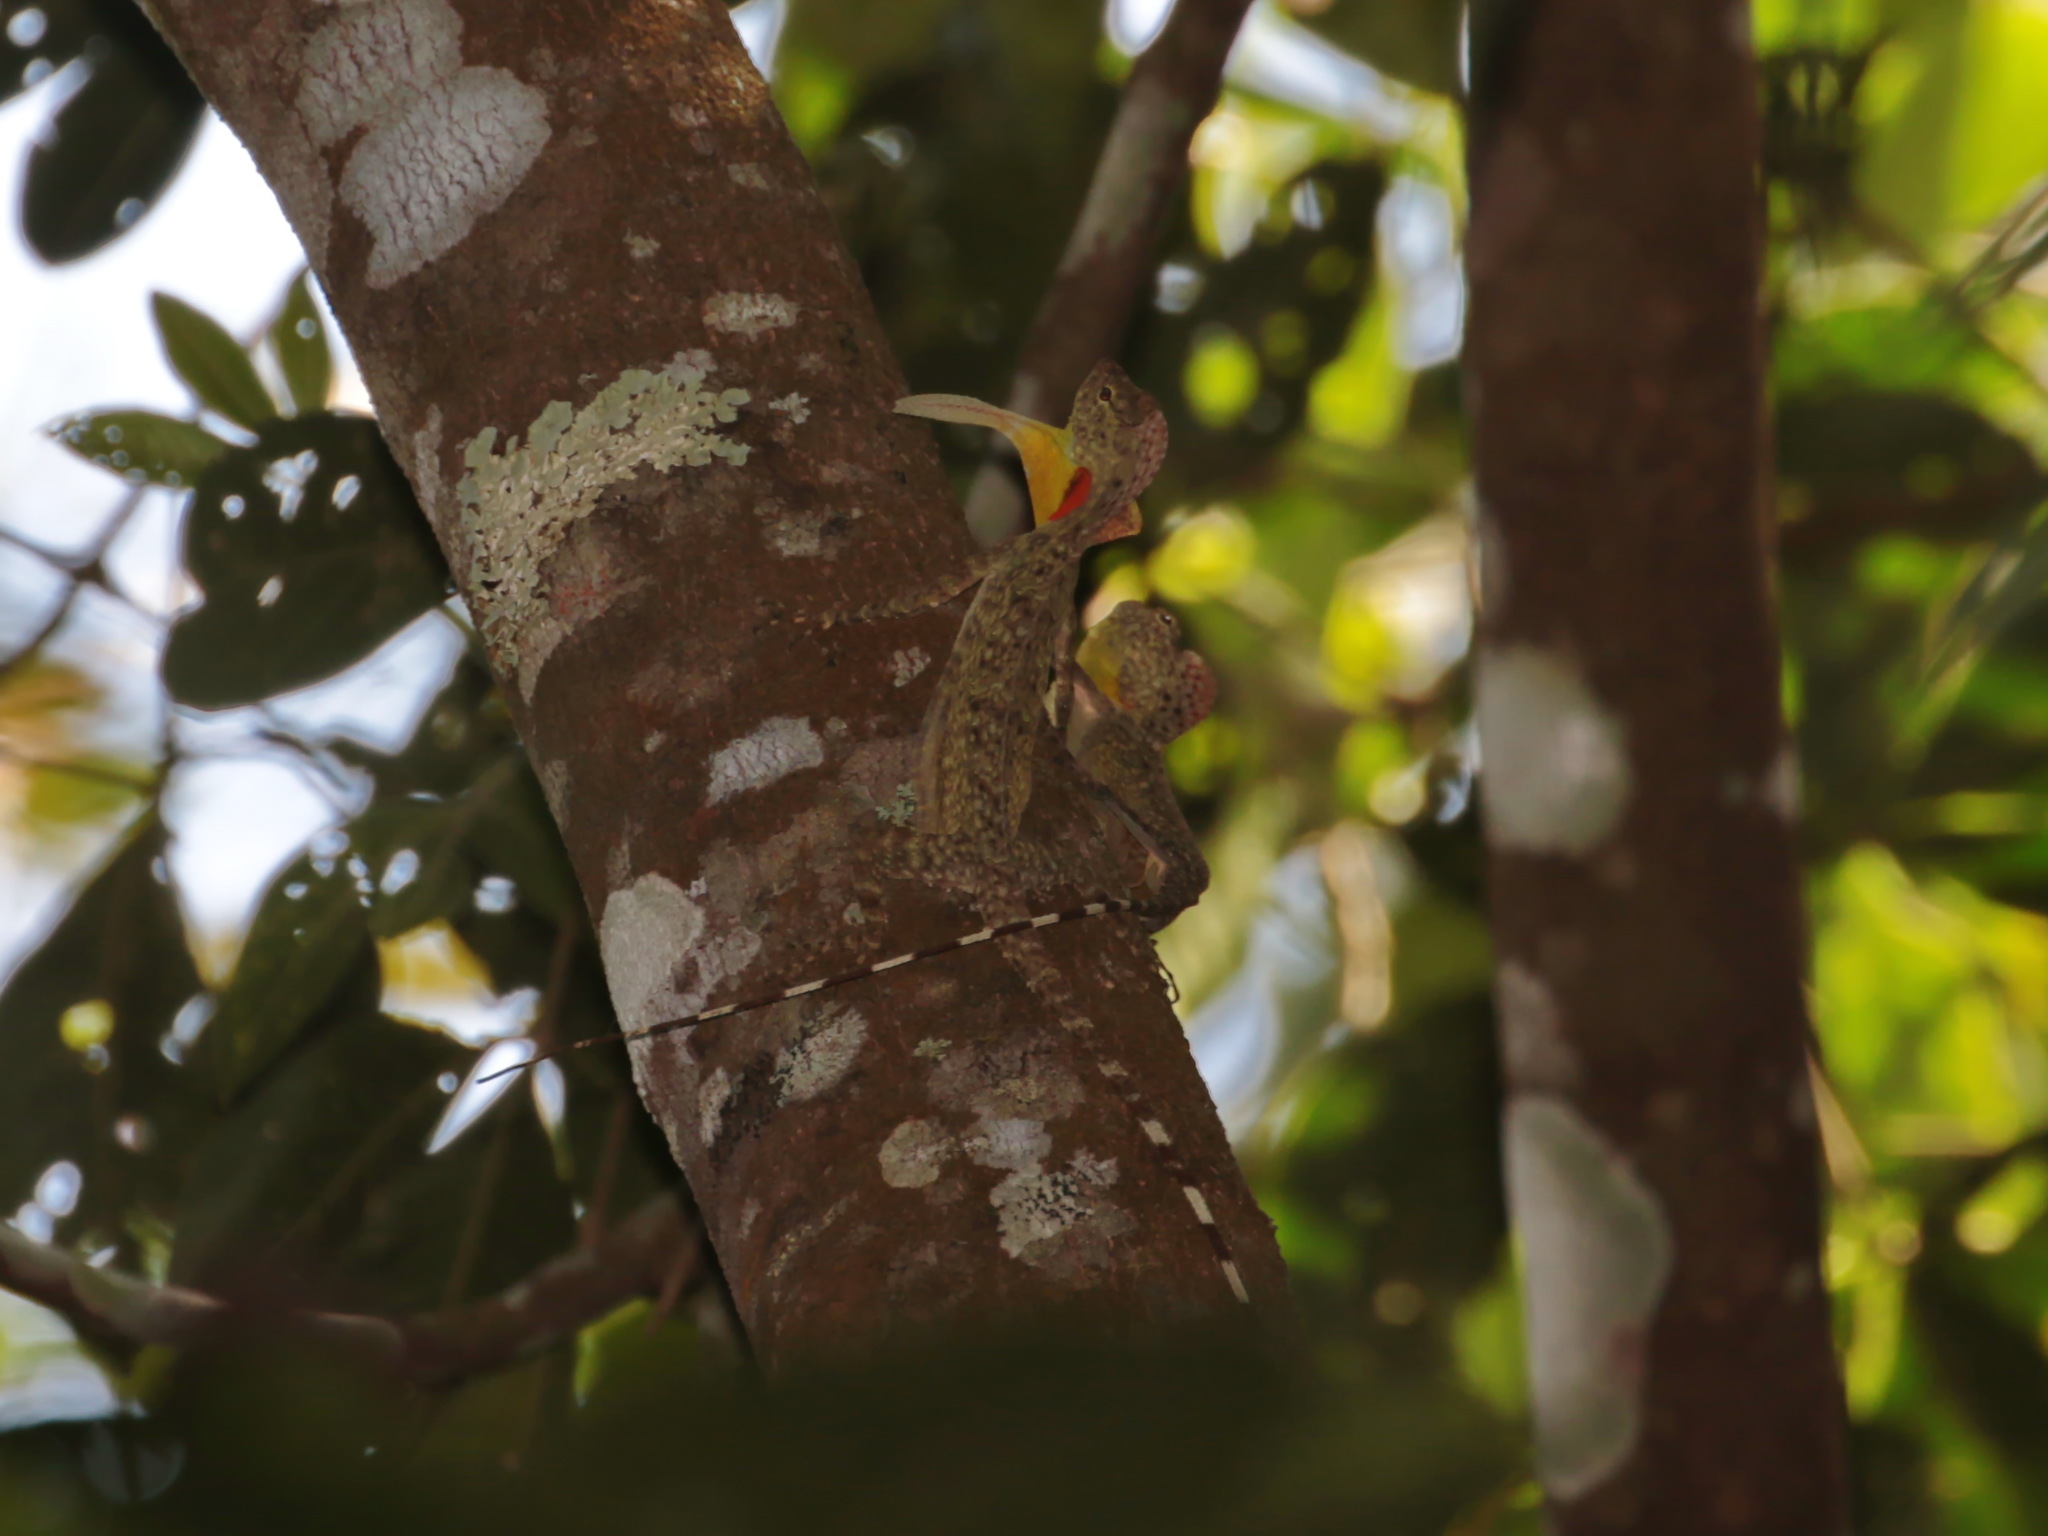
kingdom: Animalia
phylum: Chordata
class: Squamata
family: Agamidae
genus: Draco
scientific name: Draco blanfordii
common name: Blanford's flying dragon
